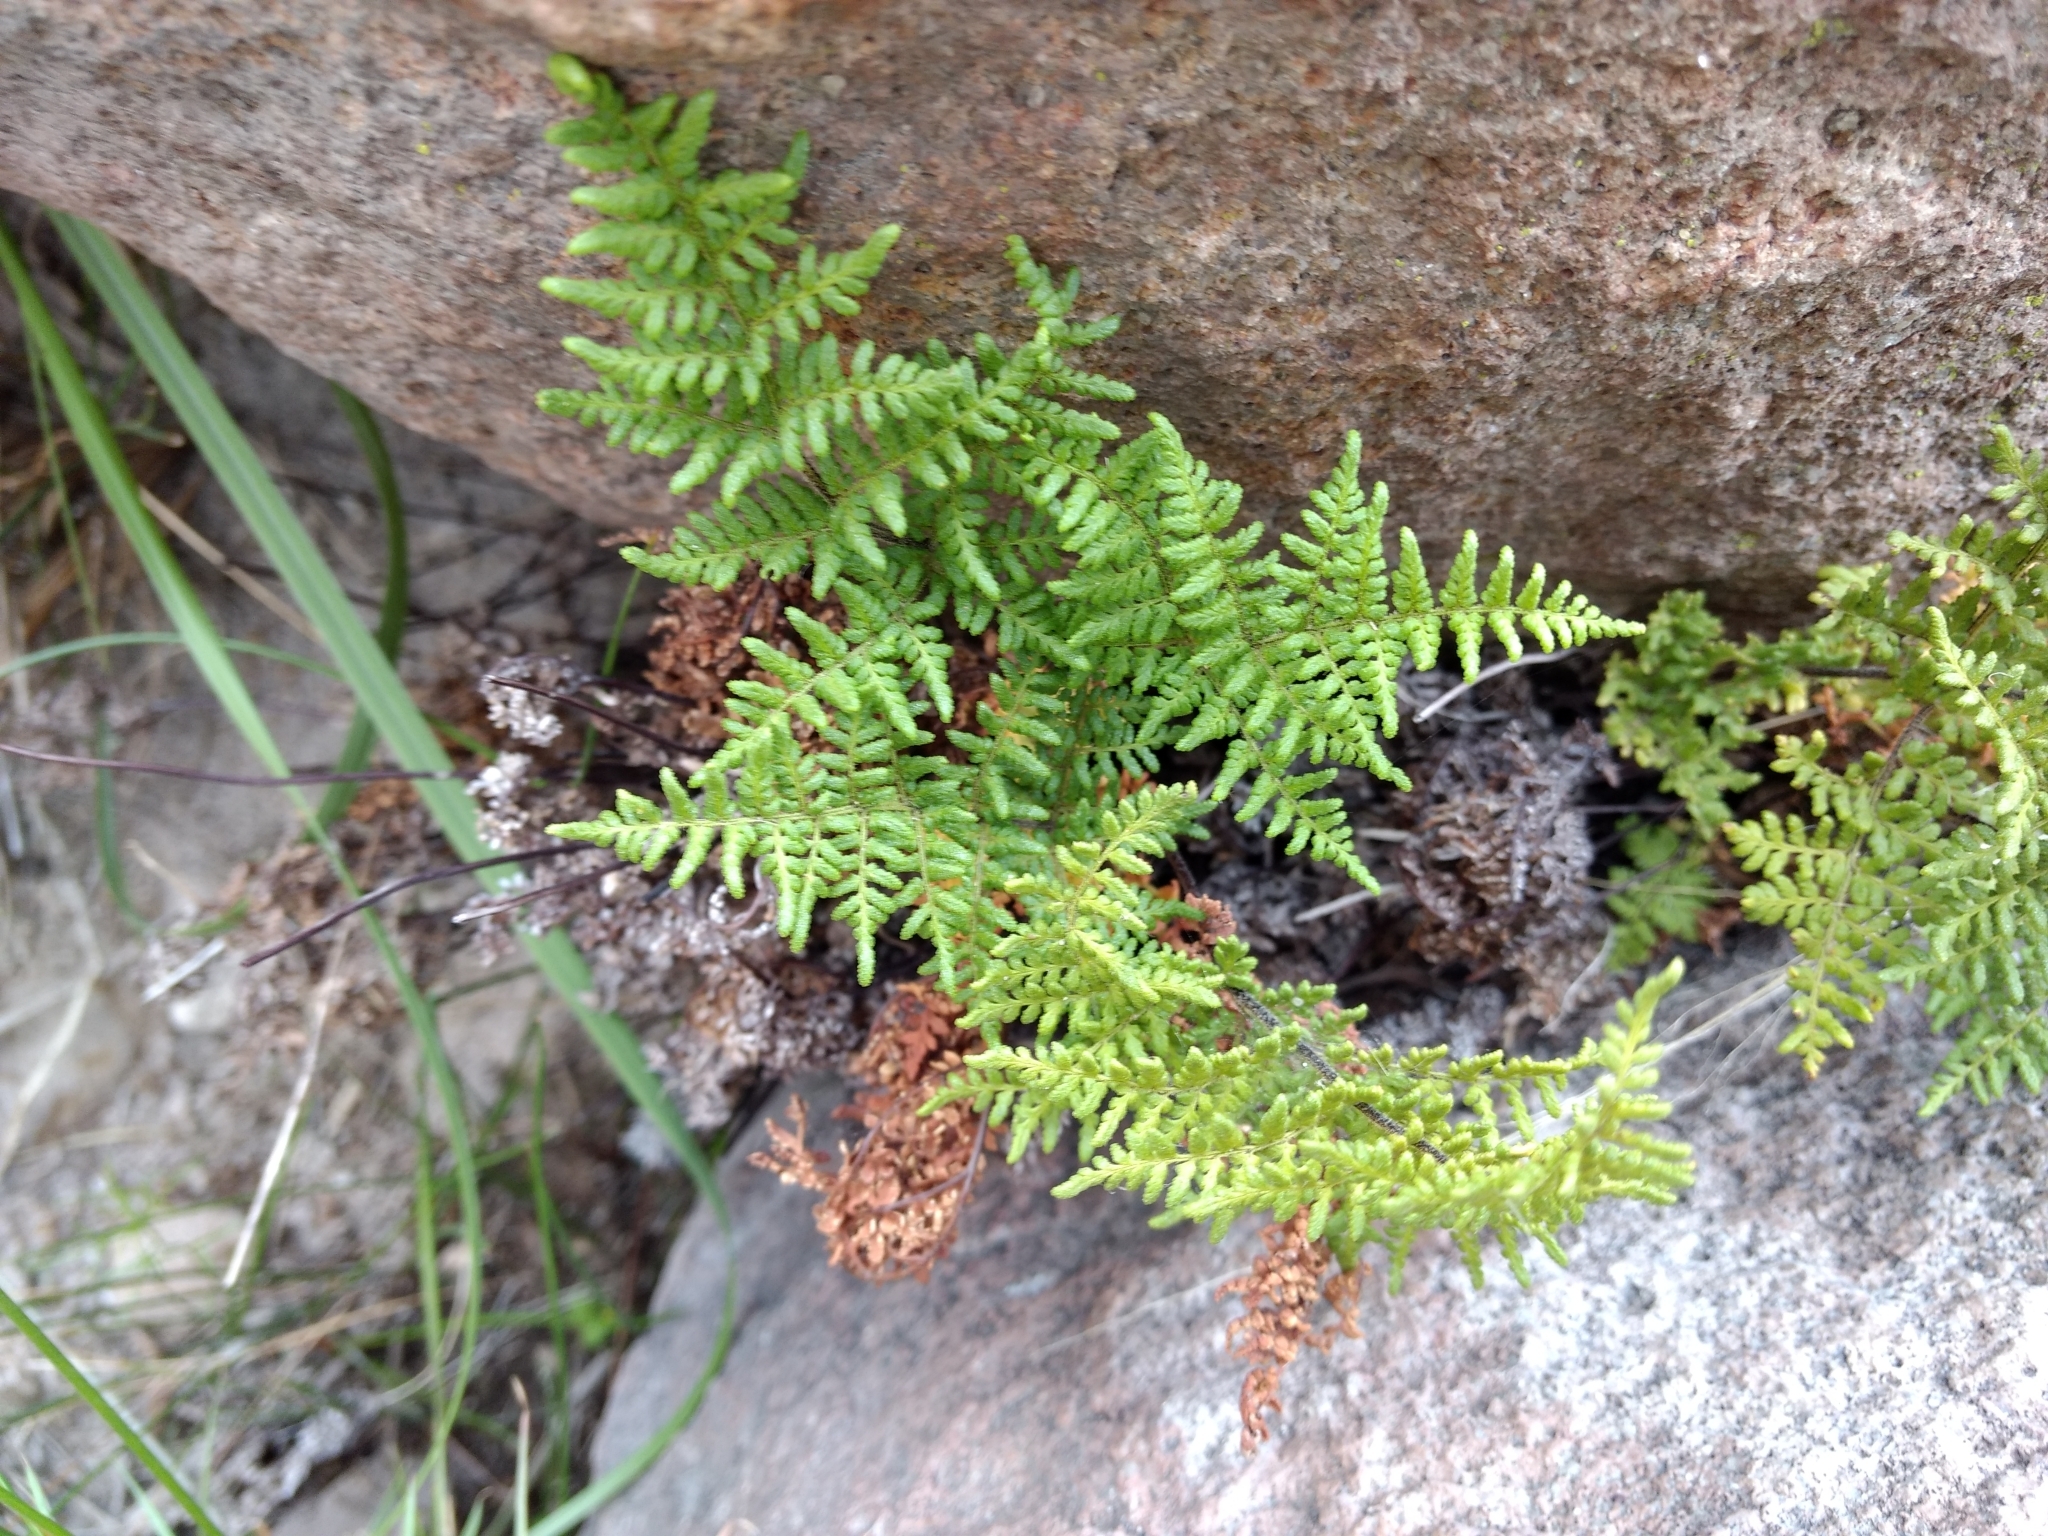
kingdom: Plantae
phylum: Tracheophyta
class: Polypodiopsida
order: Polypodiales
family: Pteridaceae
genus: Gaga
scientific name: Gaga kaulfussii
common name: Glandular lip fern
